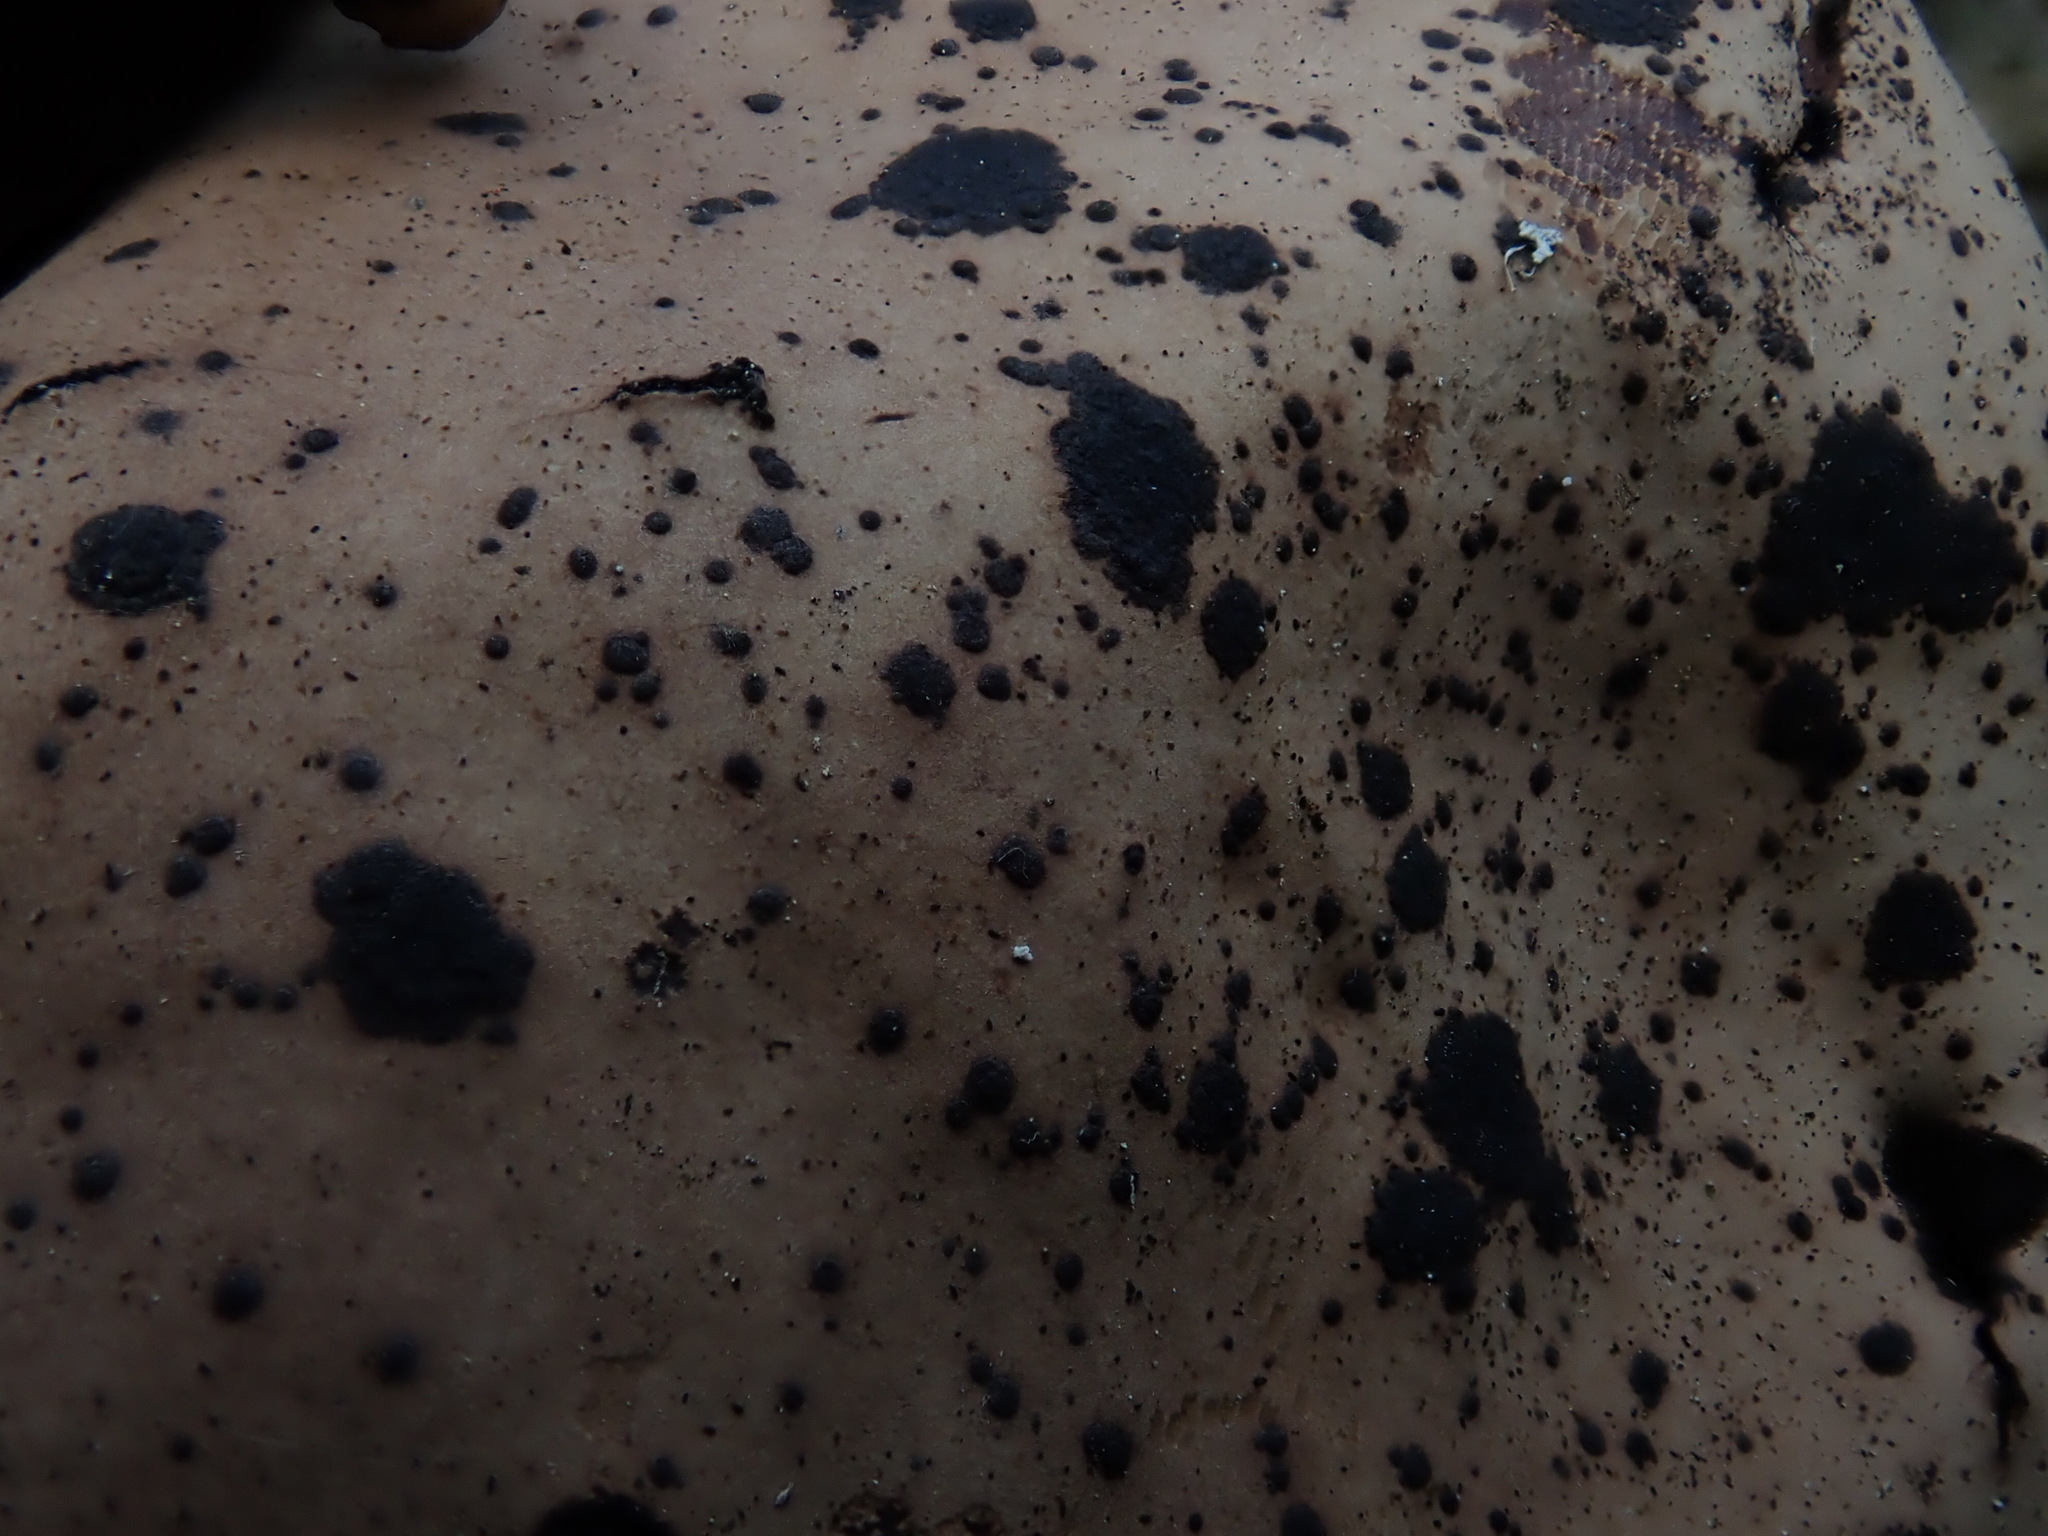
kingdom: Fungi
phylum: Ascomycota
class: Lecanoromycetes
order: Umbilicariales
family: Umbilicariaceae
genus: Umbilicaria
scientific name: Umbilicaria mammulata
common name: Smooth rock tripe
